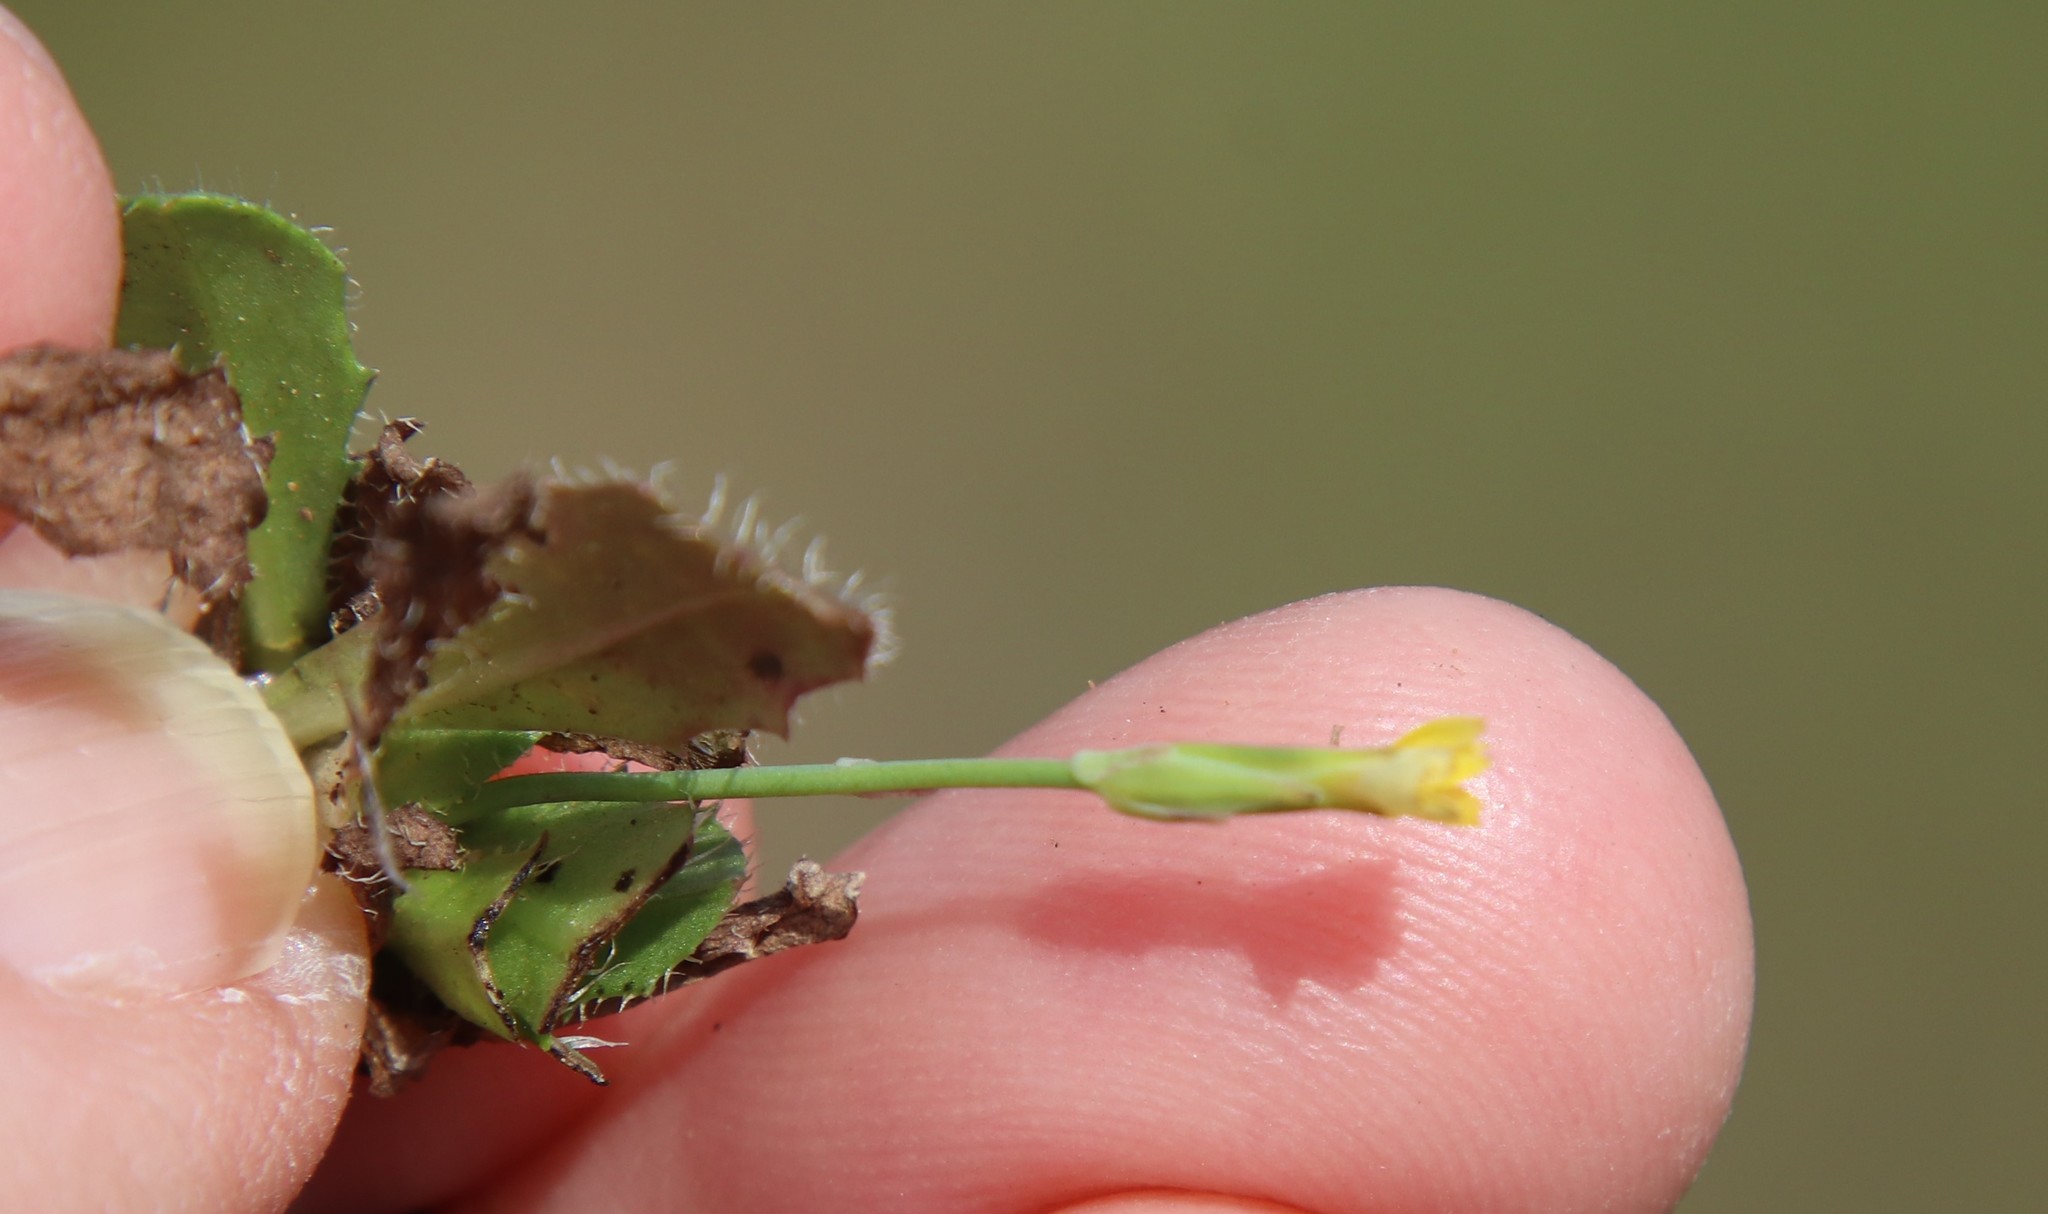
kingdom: Plantae
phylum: Tracheophyta
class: Magnoliopsida
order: Asterales
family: Asteraceae
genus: Hypochaeris
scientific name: Hypochaeris glabra
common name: Smooth catsear
